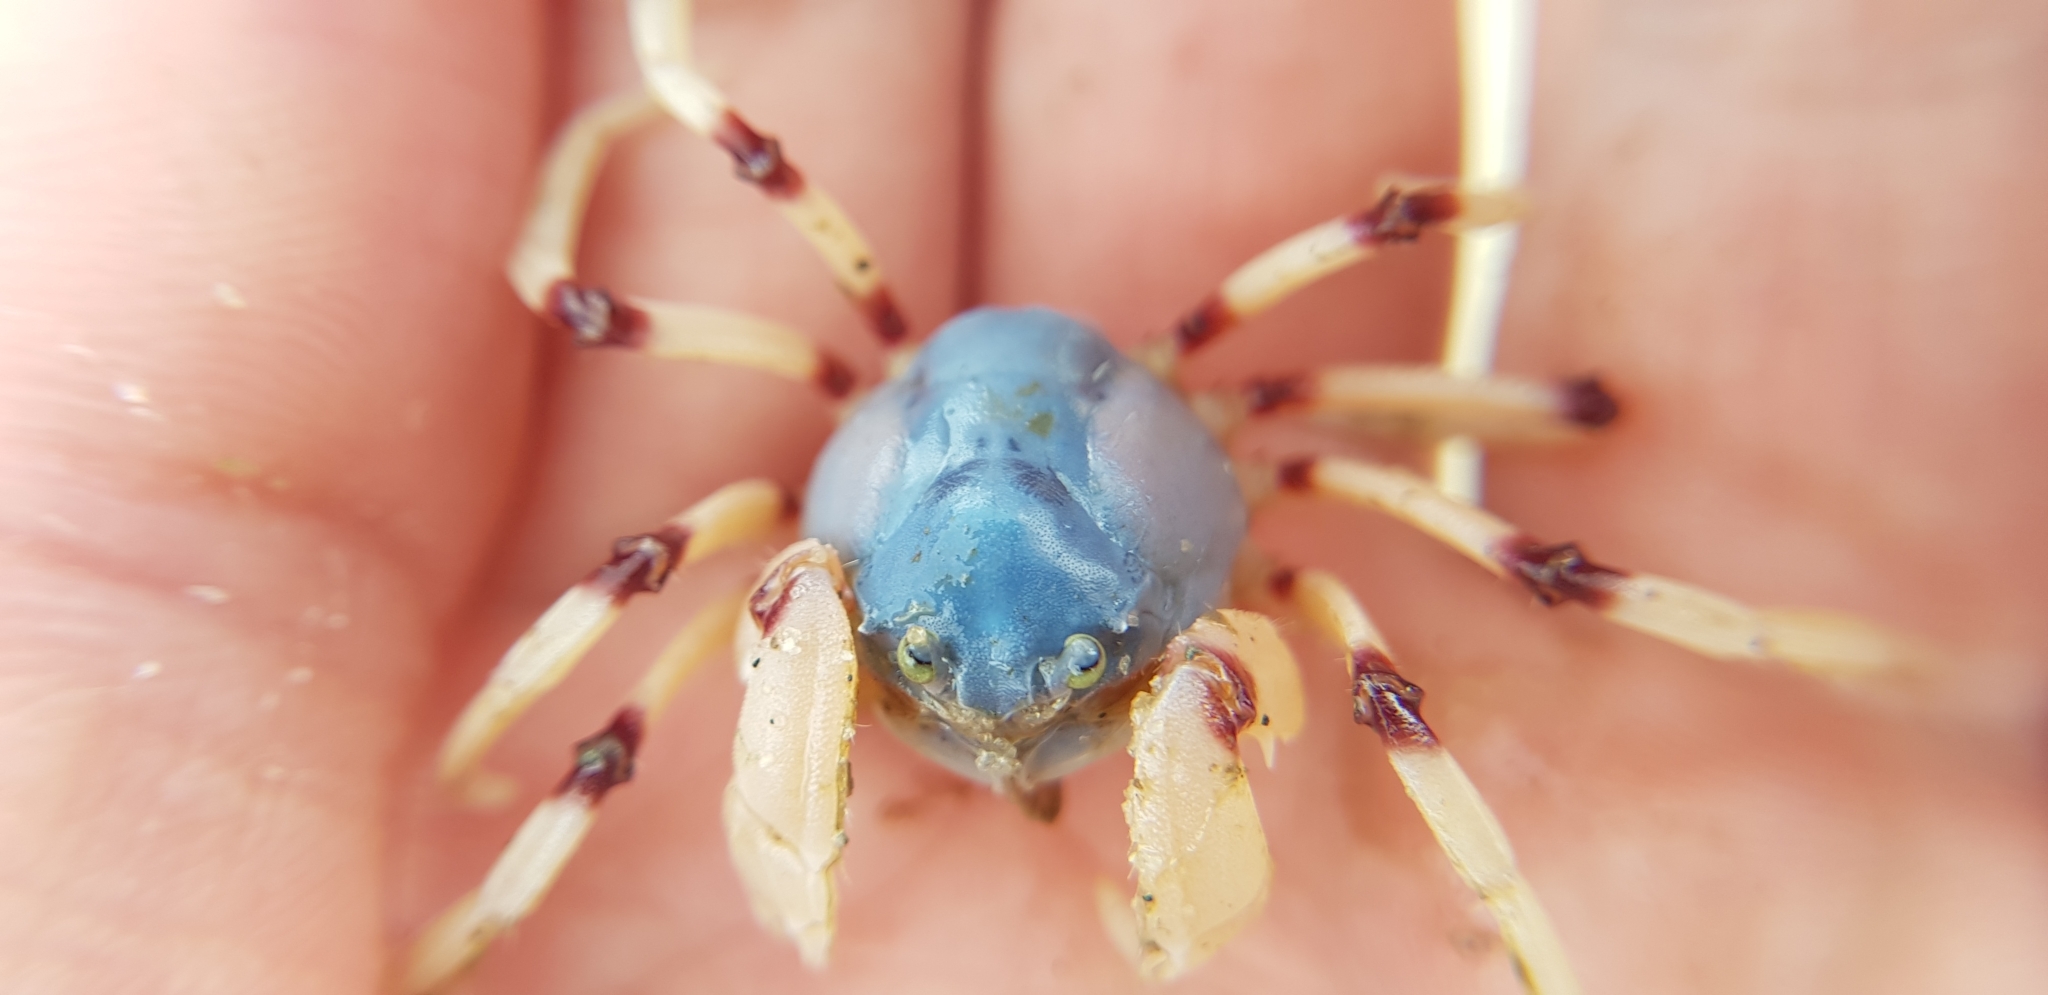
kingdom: Animalia
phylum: Arthropoda
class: Malacostraca
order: Decapoda
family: Mictyridae
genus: Mictyris
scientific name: Mictyris longicarpus
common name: Light-blue soldier crab
